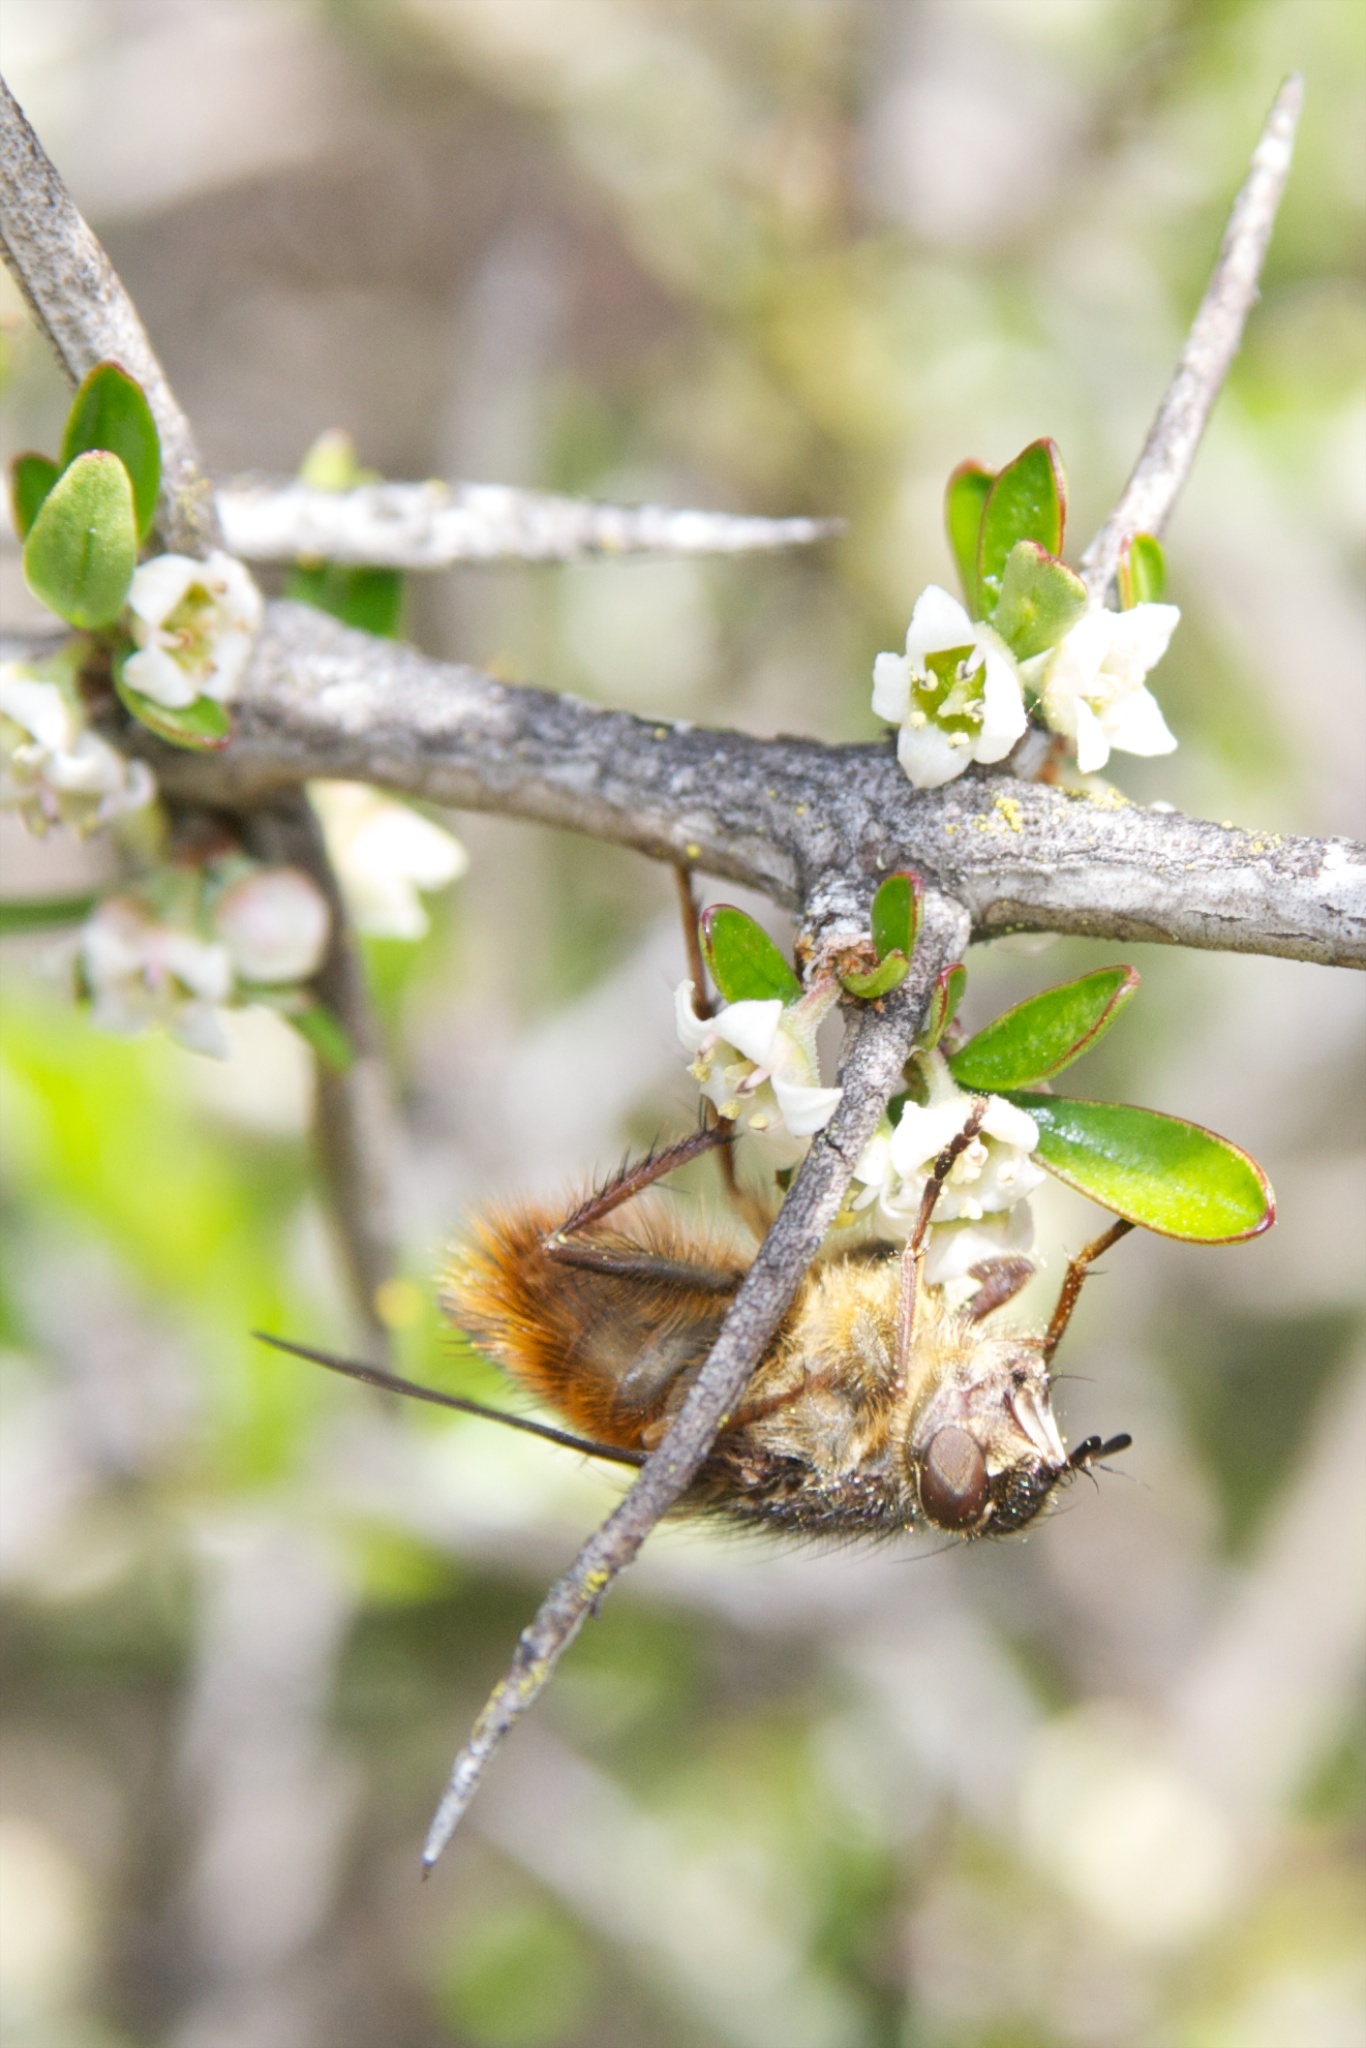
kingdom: Plantae
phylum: Tracheophyta
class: Magnoliopsida
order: Rosales
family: Rhamnaceae
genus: Discaria
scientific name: Discaria toumatou
